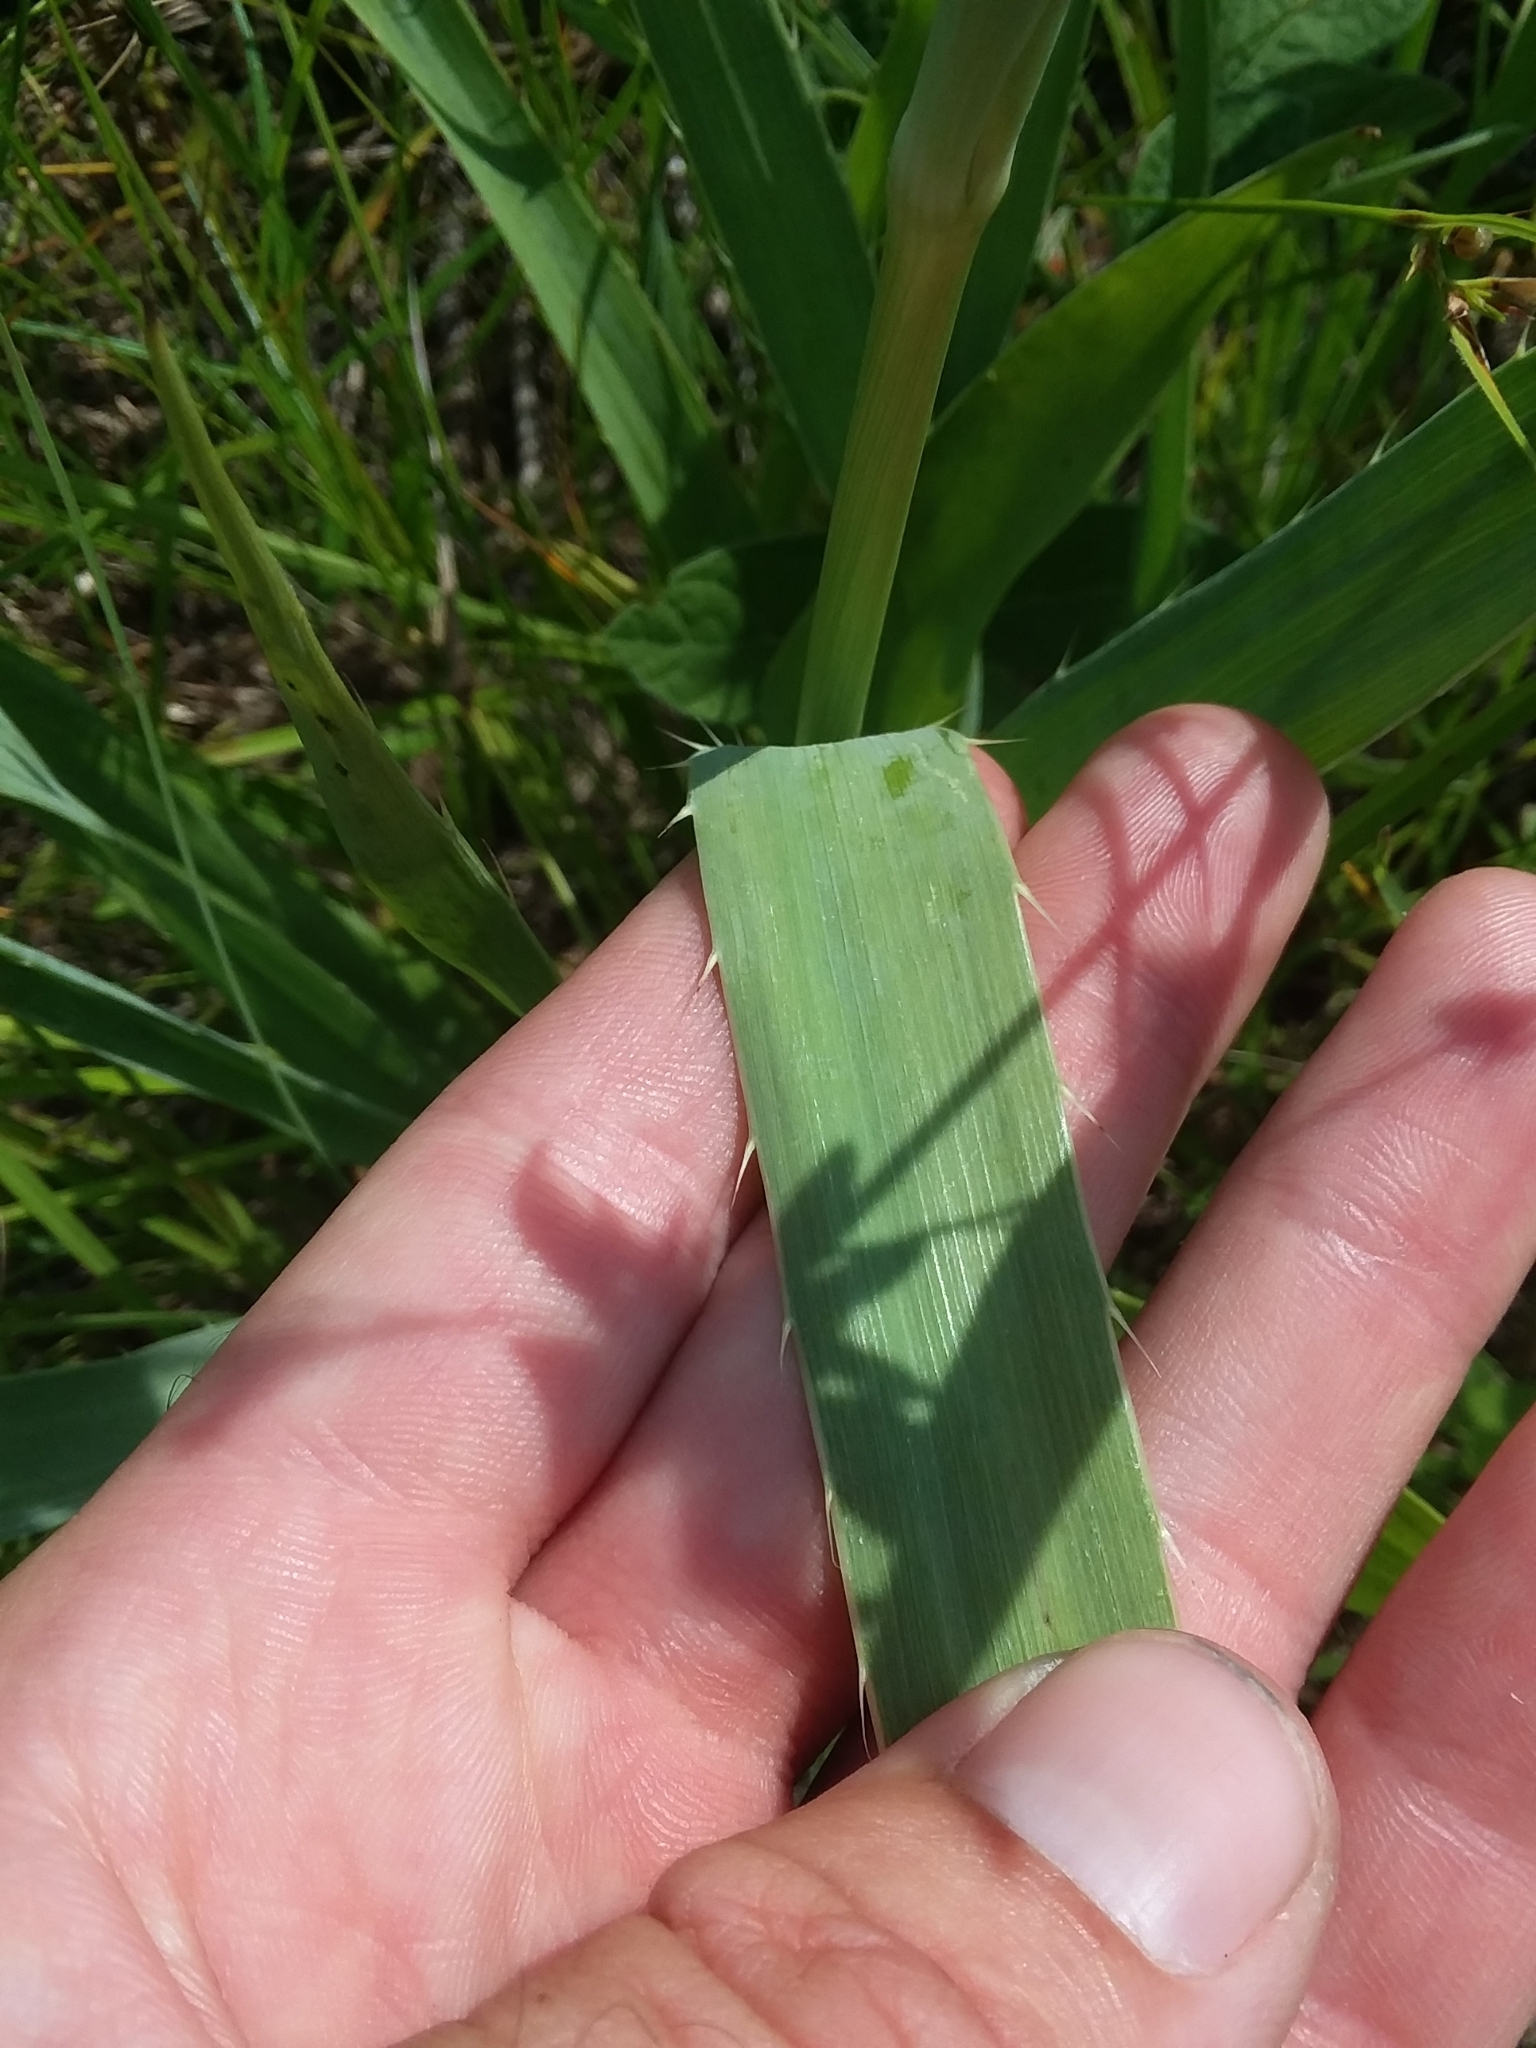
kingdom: Plantae
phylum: Tracheophyta
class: Magnoliopsida
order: Apiales
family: Apiaceae
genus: Eryngium
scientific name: Eryngium yuccifolium
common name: Button eryngo
